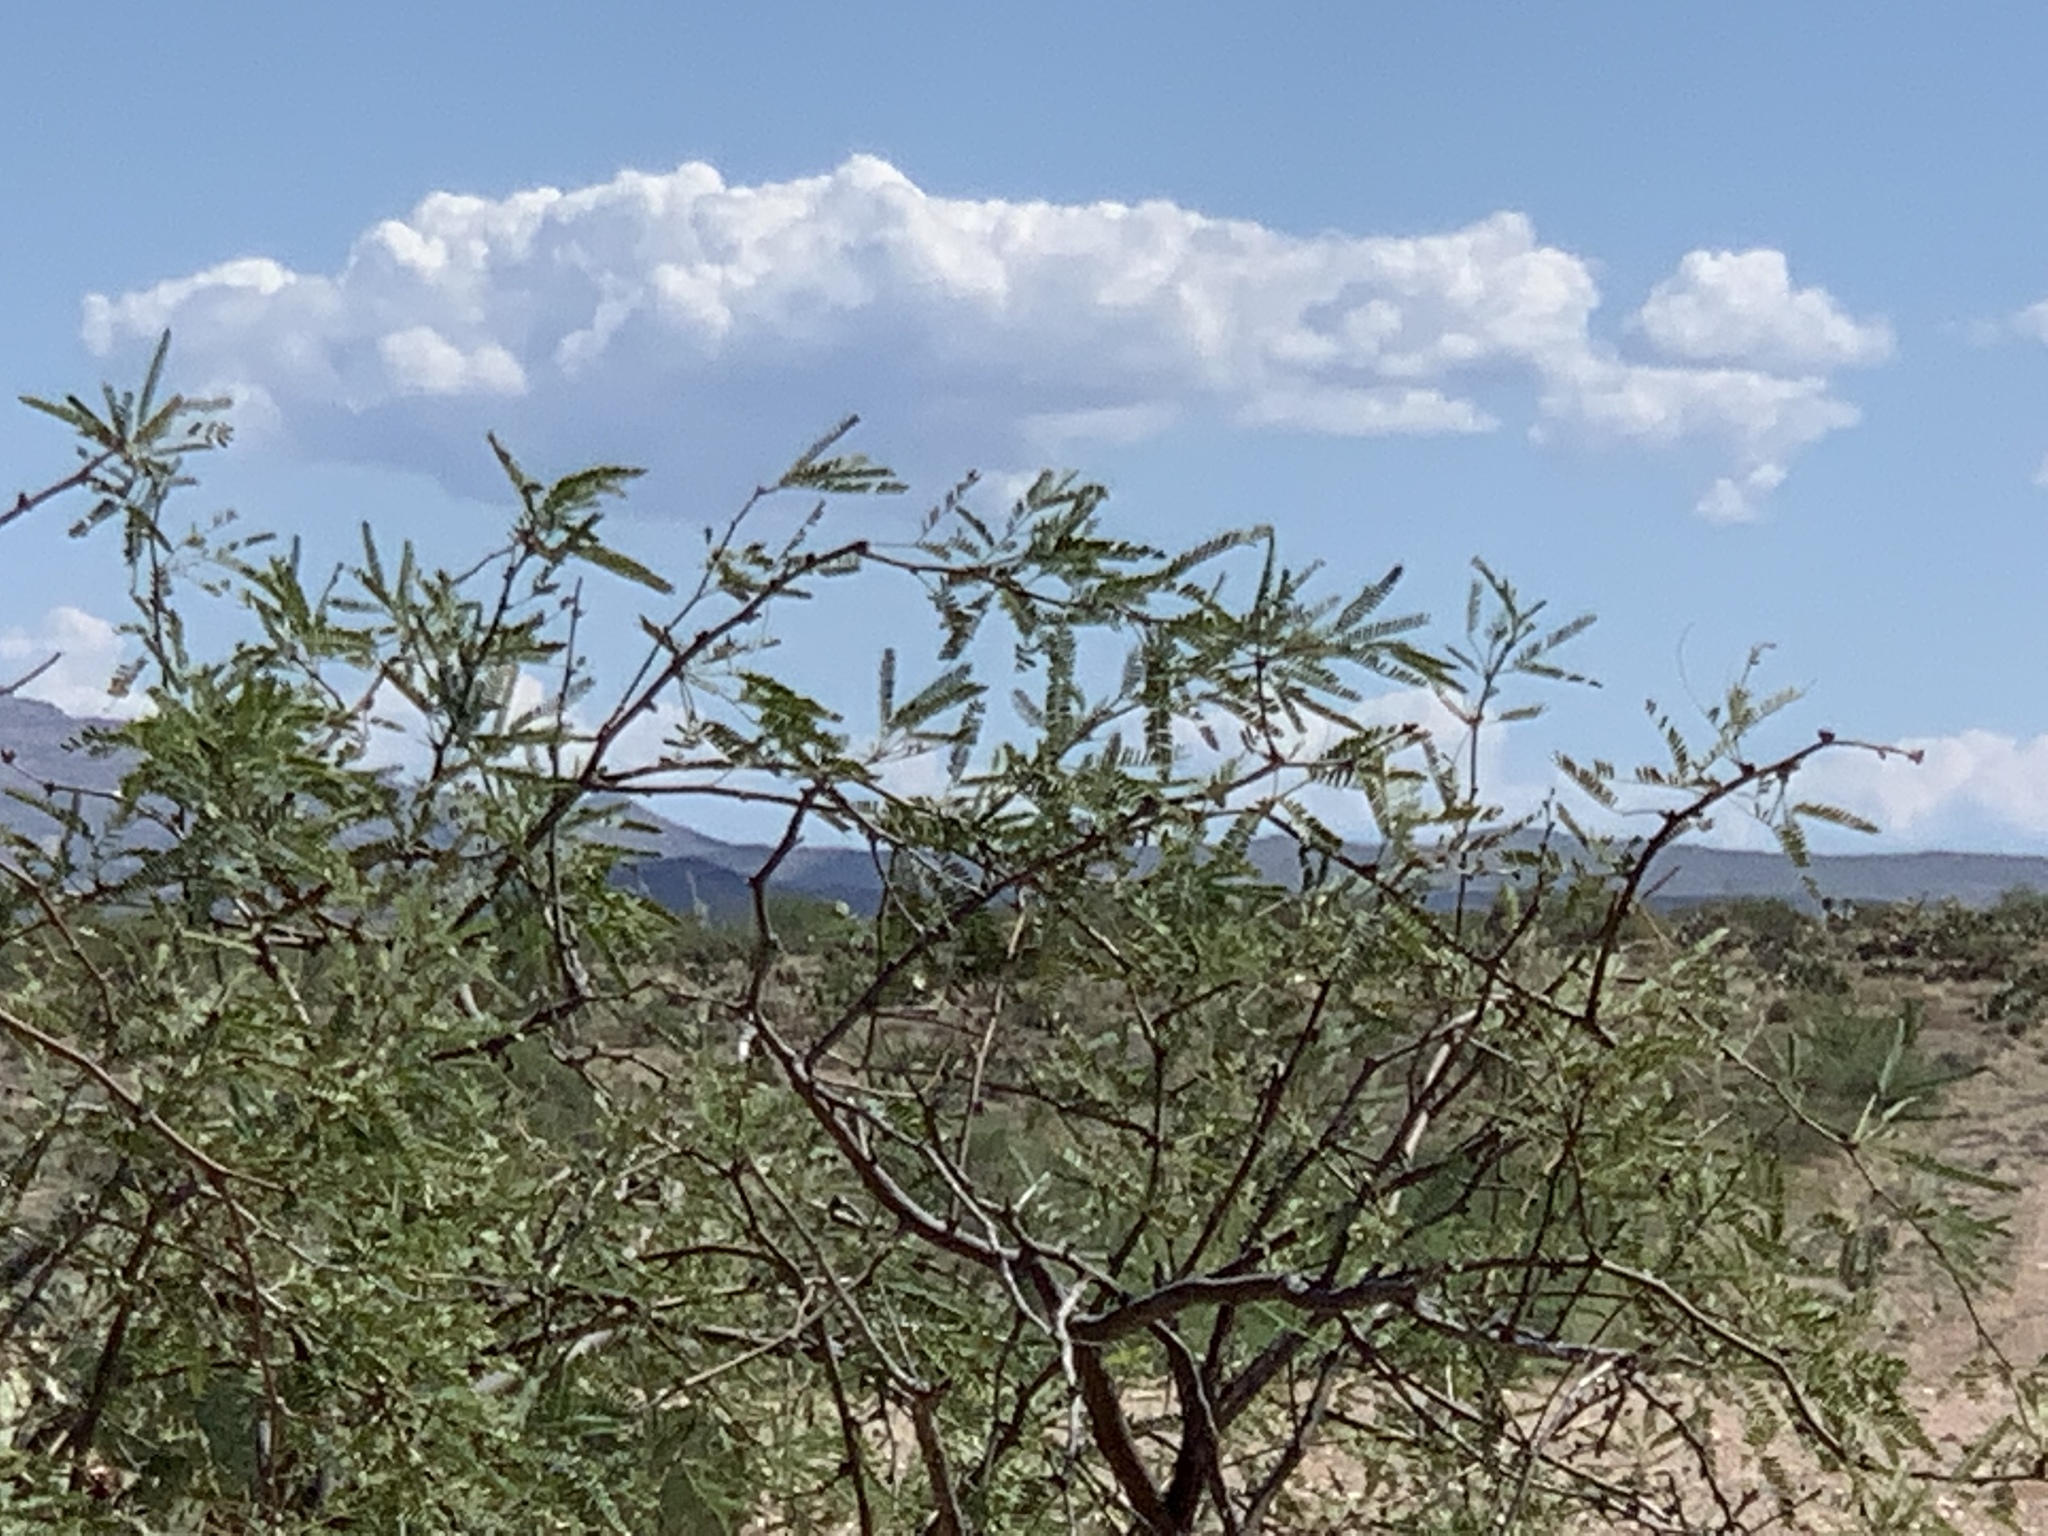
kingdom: Plantae
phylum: Tracheophyta
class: Magnoliopsida
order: Fabales
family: Fabaceae
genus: Prosopis
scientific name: Prosopis velutina
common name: Velvet mesquite
